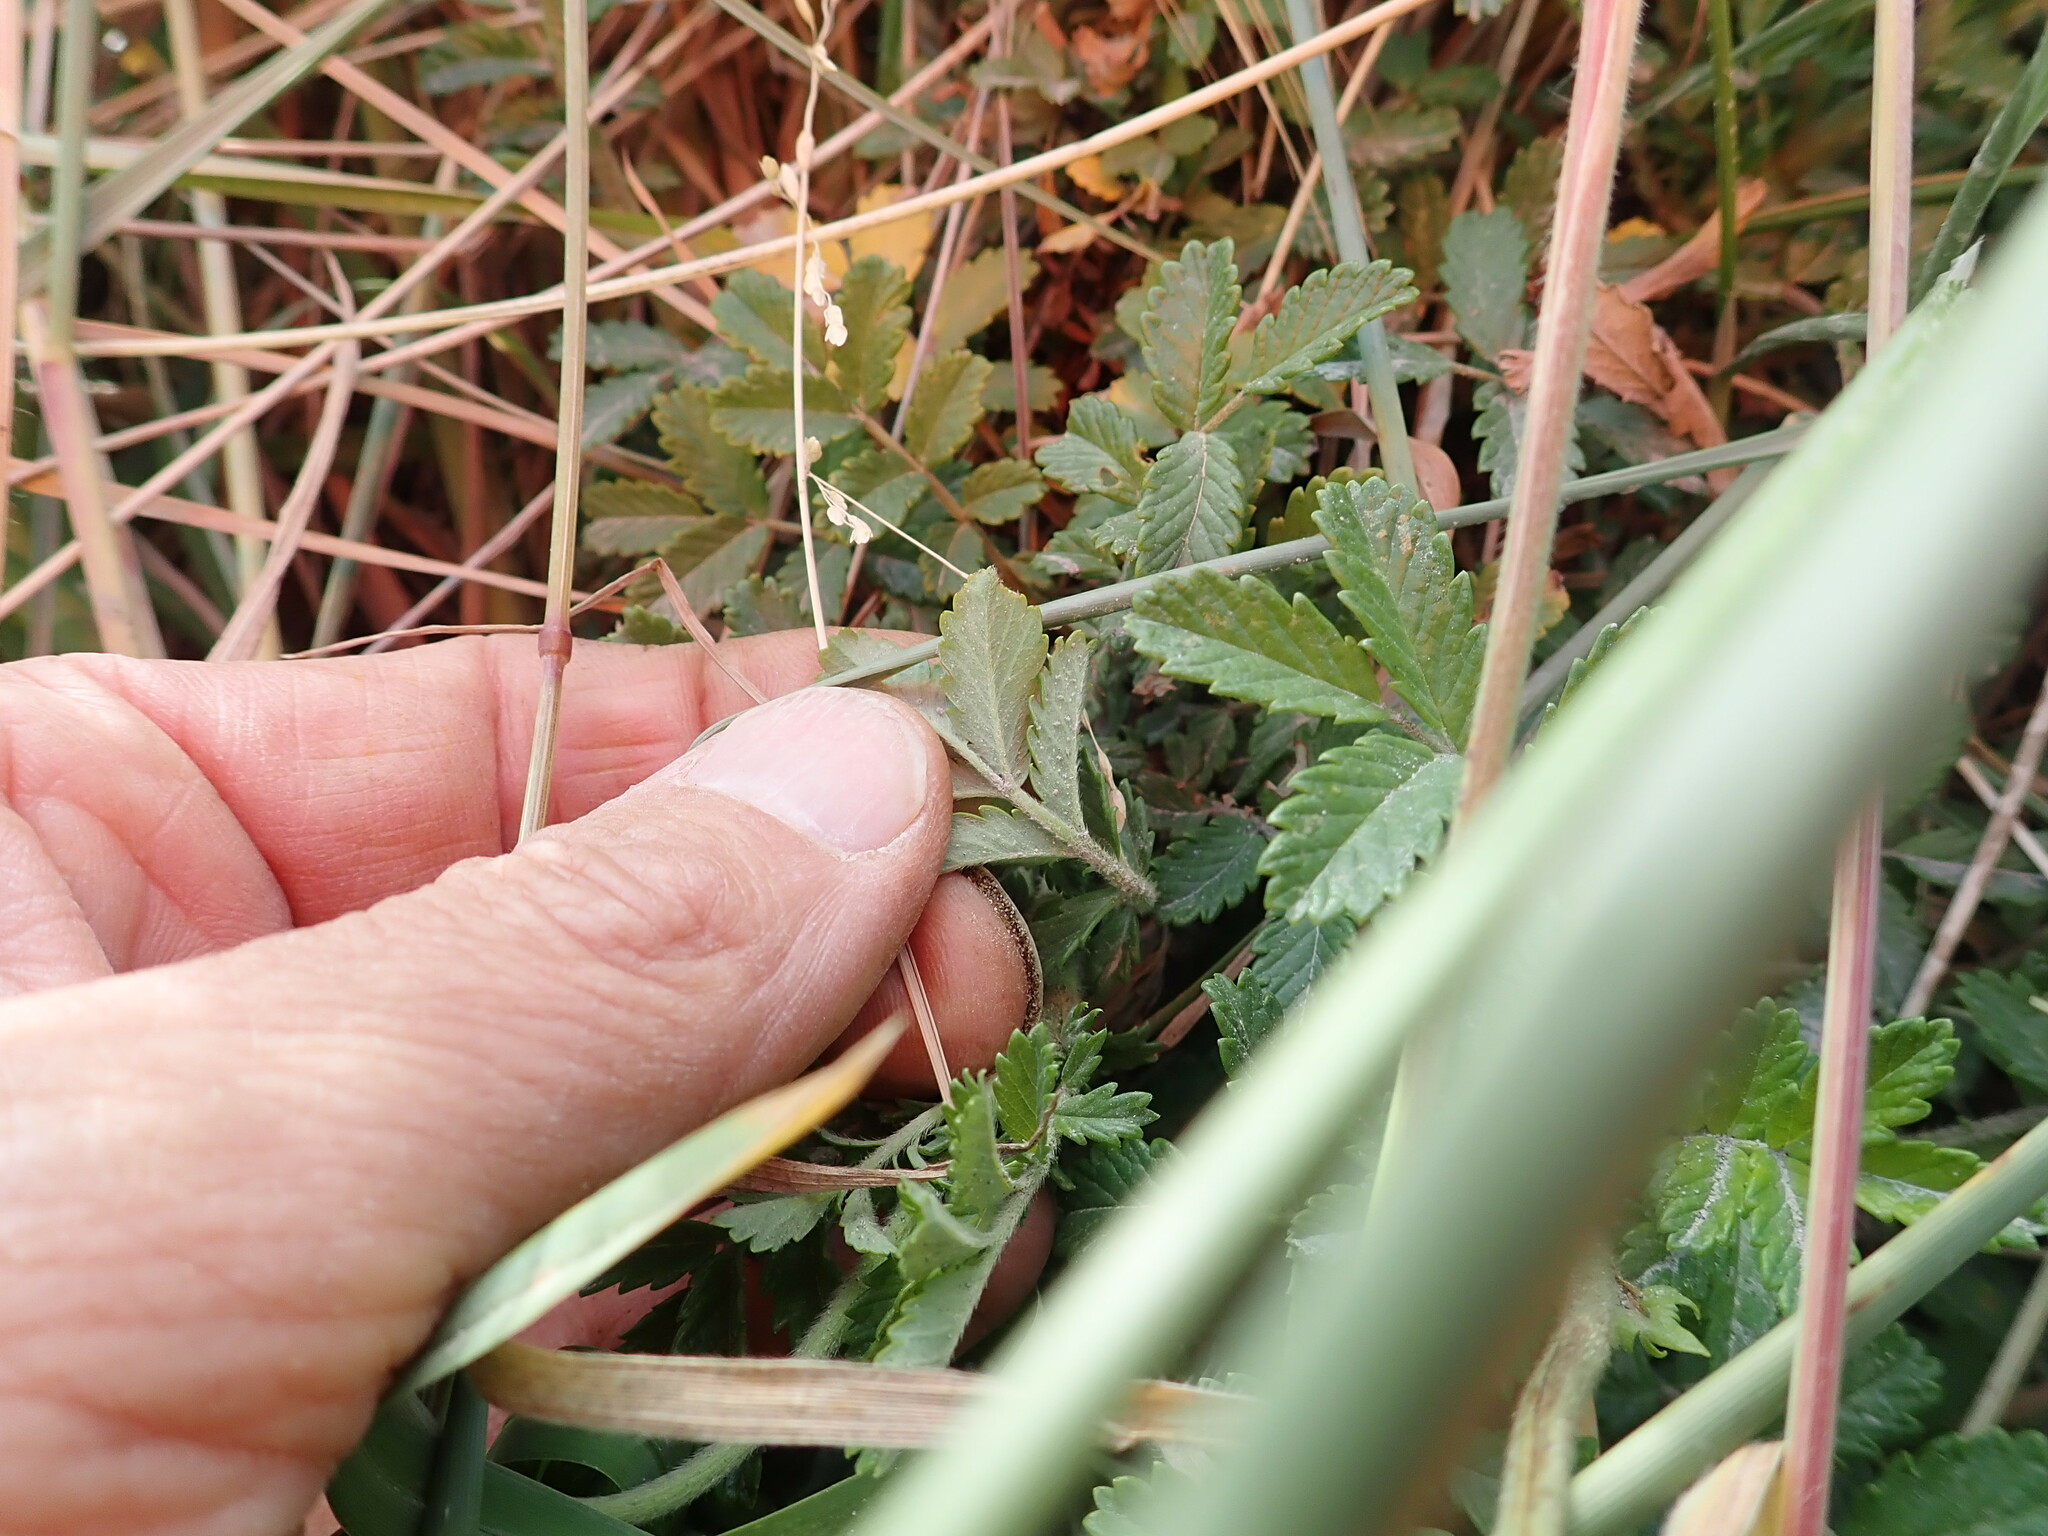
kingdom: Plantae
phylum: Tracheophyta
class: Magnoliopsida
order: Rosales
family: Rosaceae
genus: Acaena
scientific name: Acaena novae-zelandiae
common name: Pirri-pirri-bur
